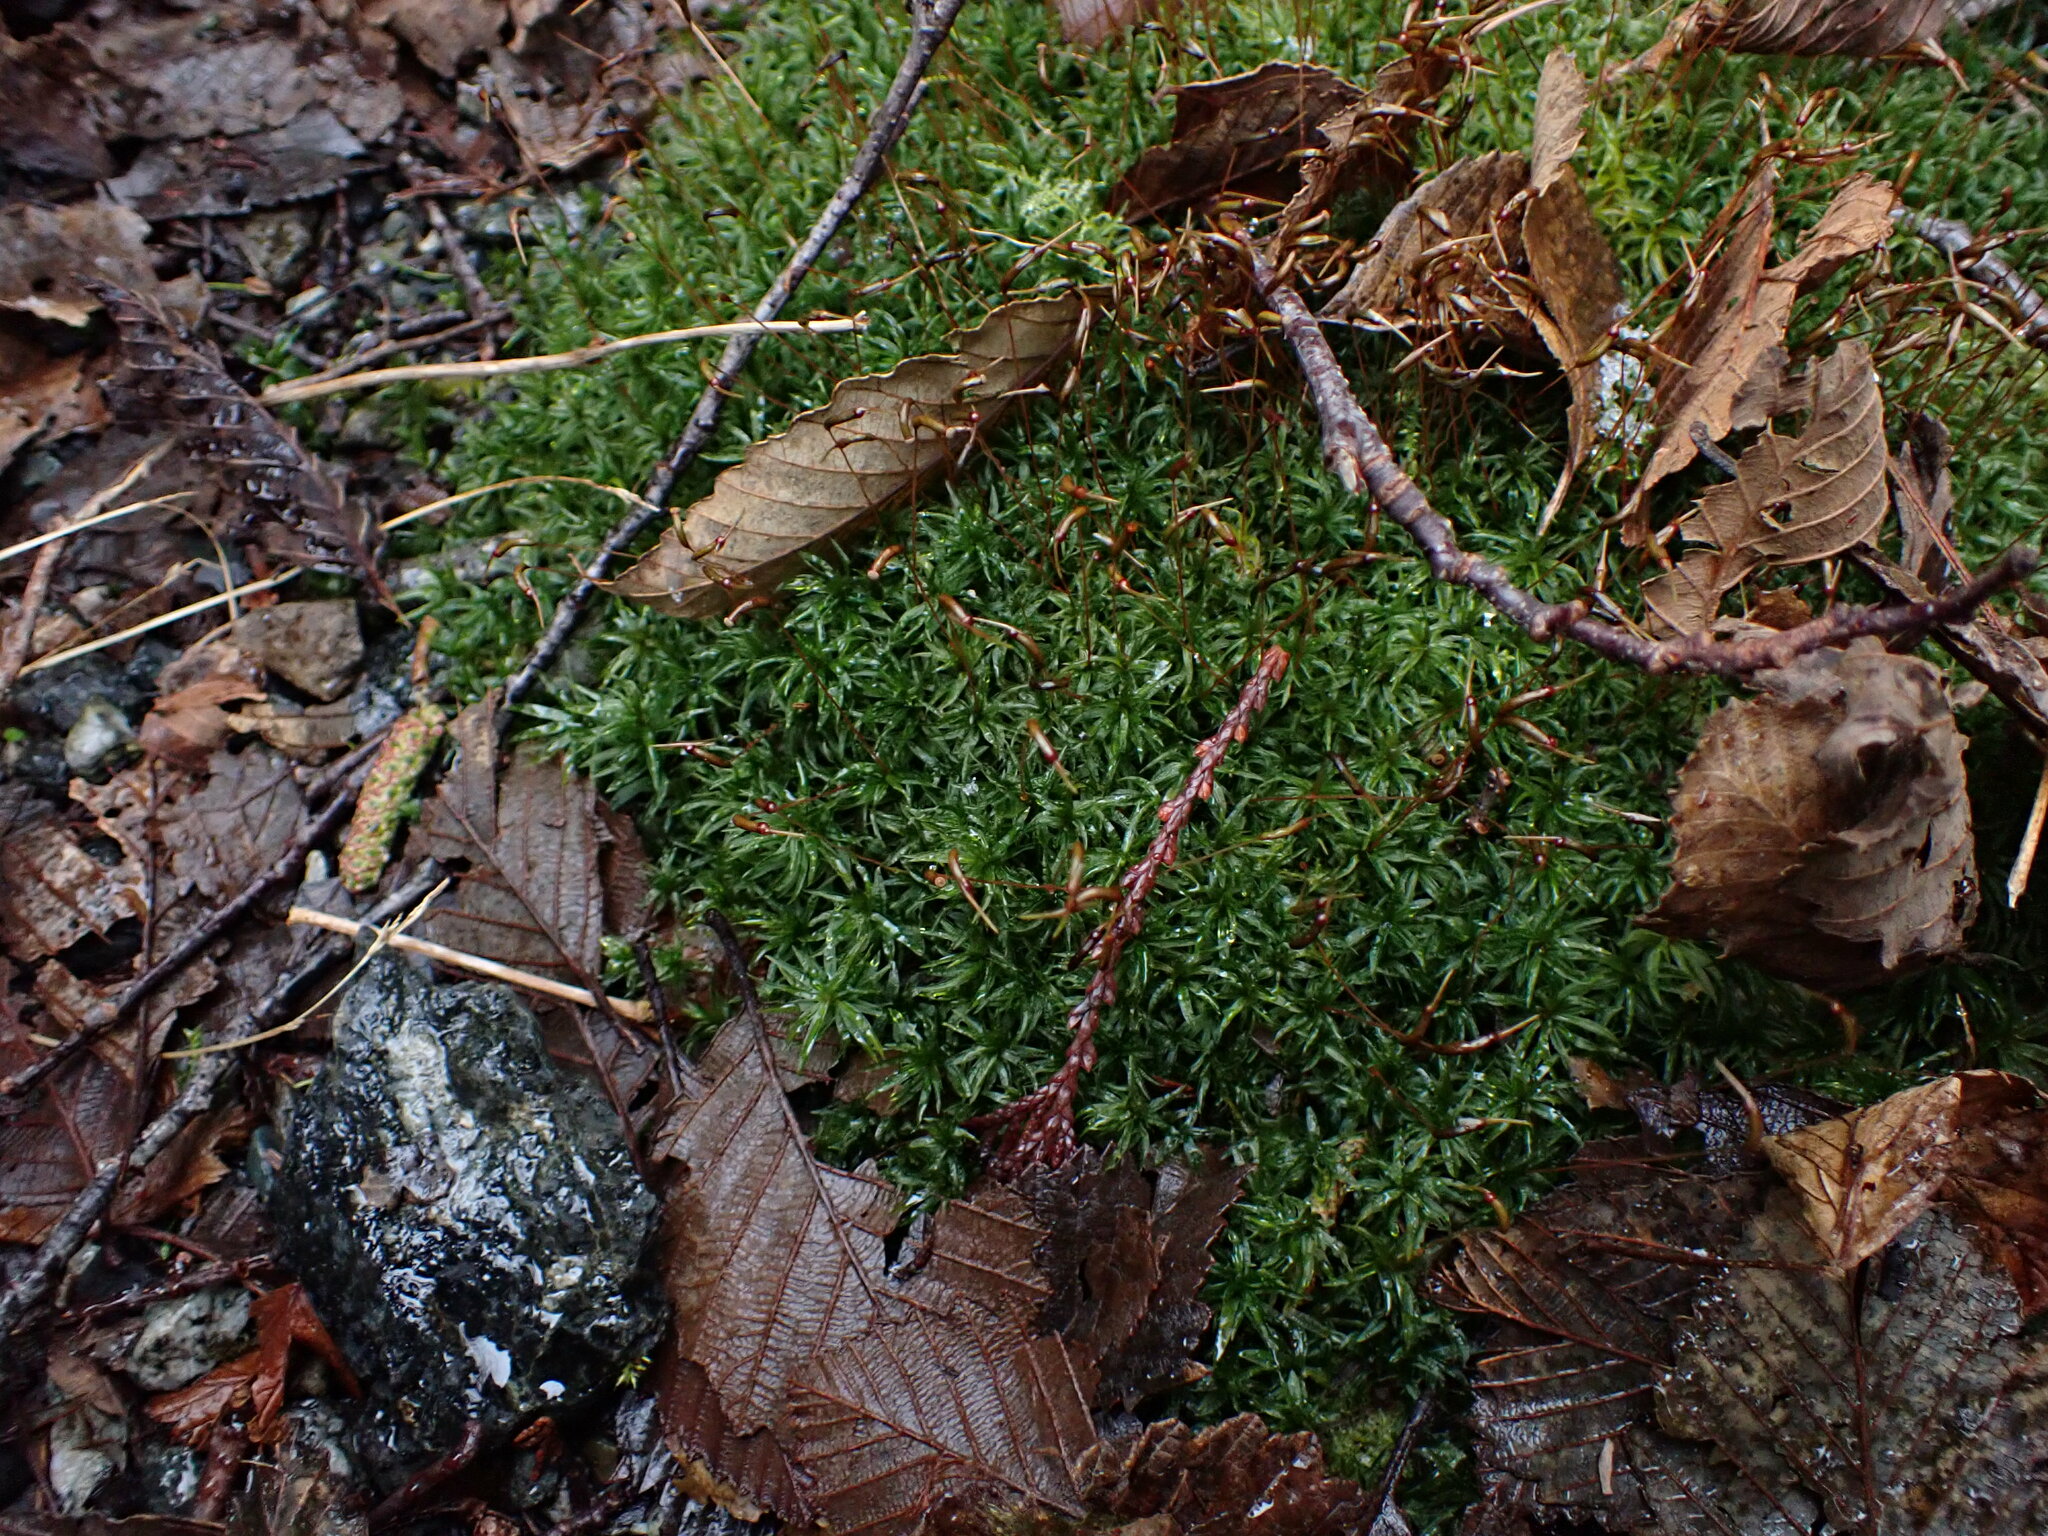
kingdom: Plantae
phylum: Bryophyta
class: Polytrichopsida
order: Polytrichales
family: Polytrichaceae
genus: Atrichum
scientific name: Atrichum undulatum
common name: Common smoothcap
